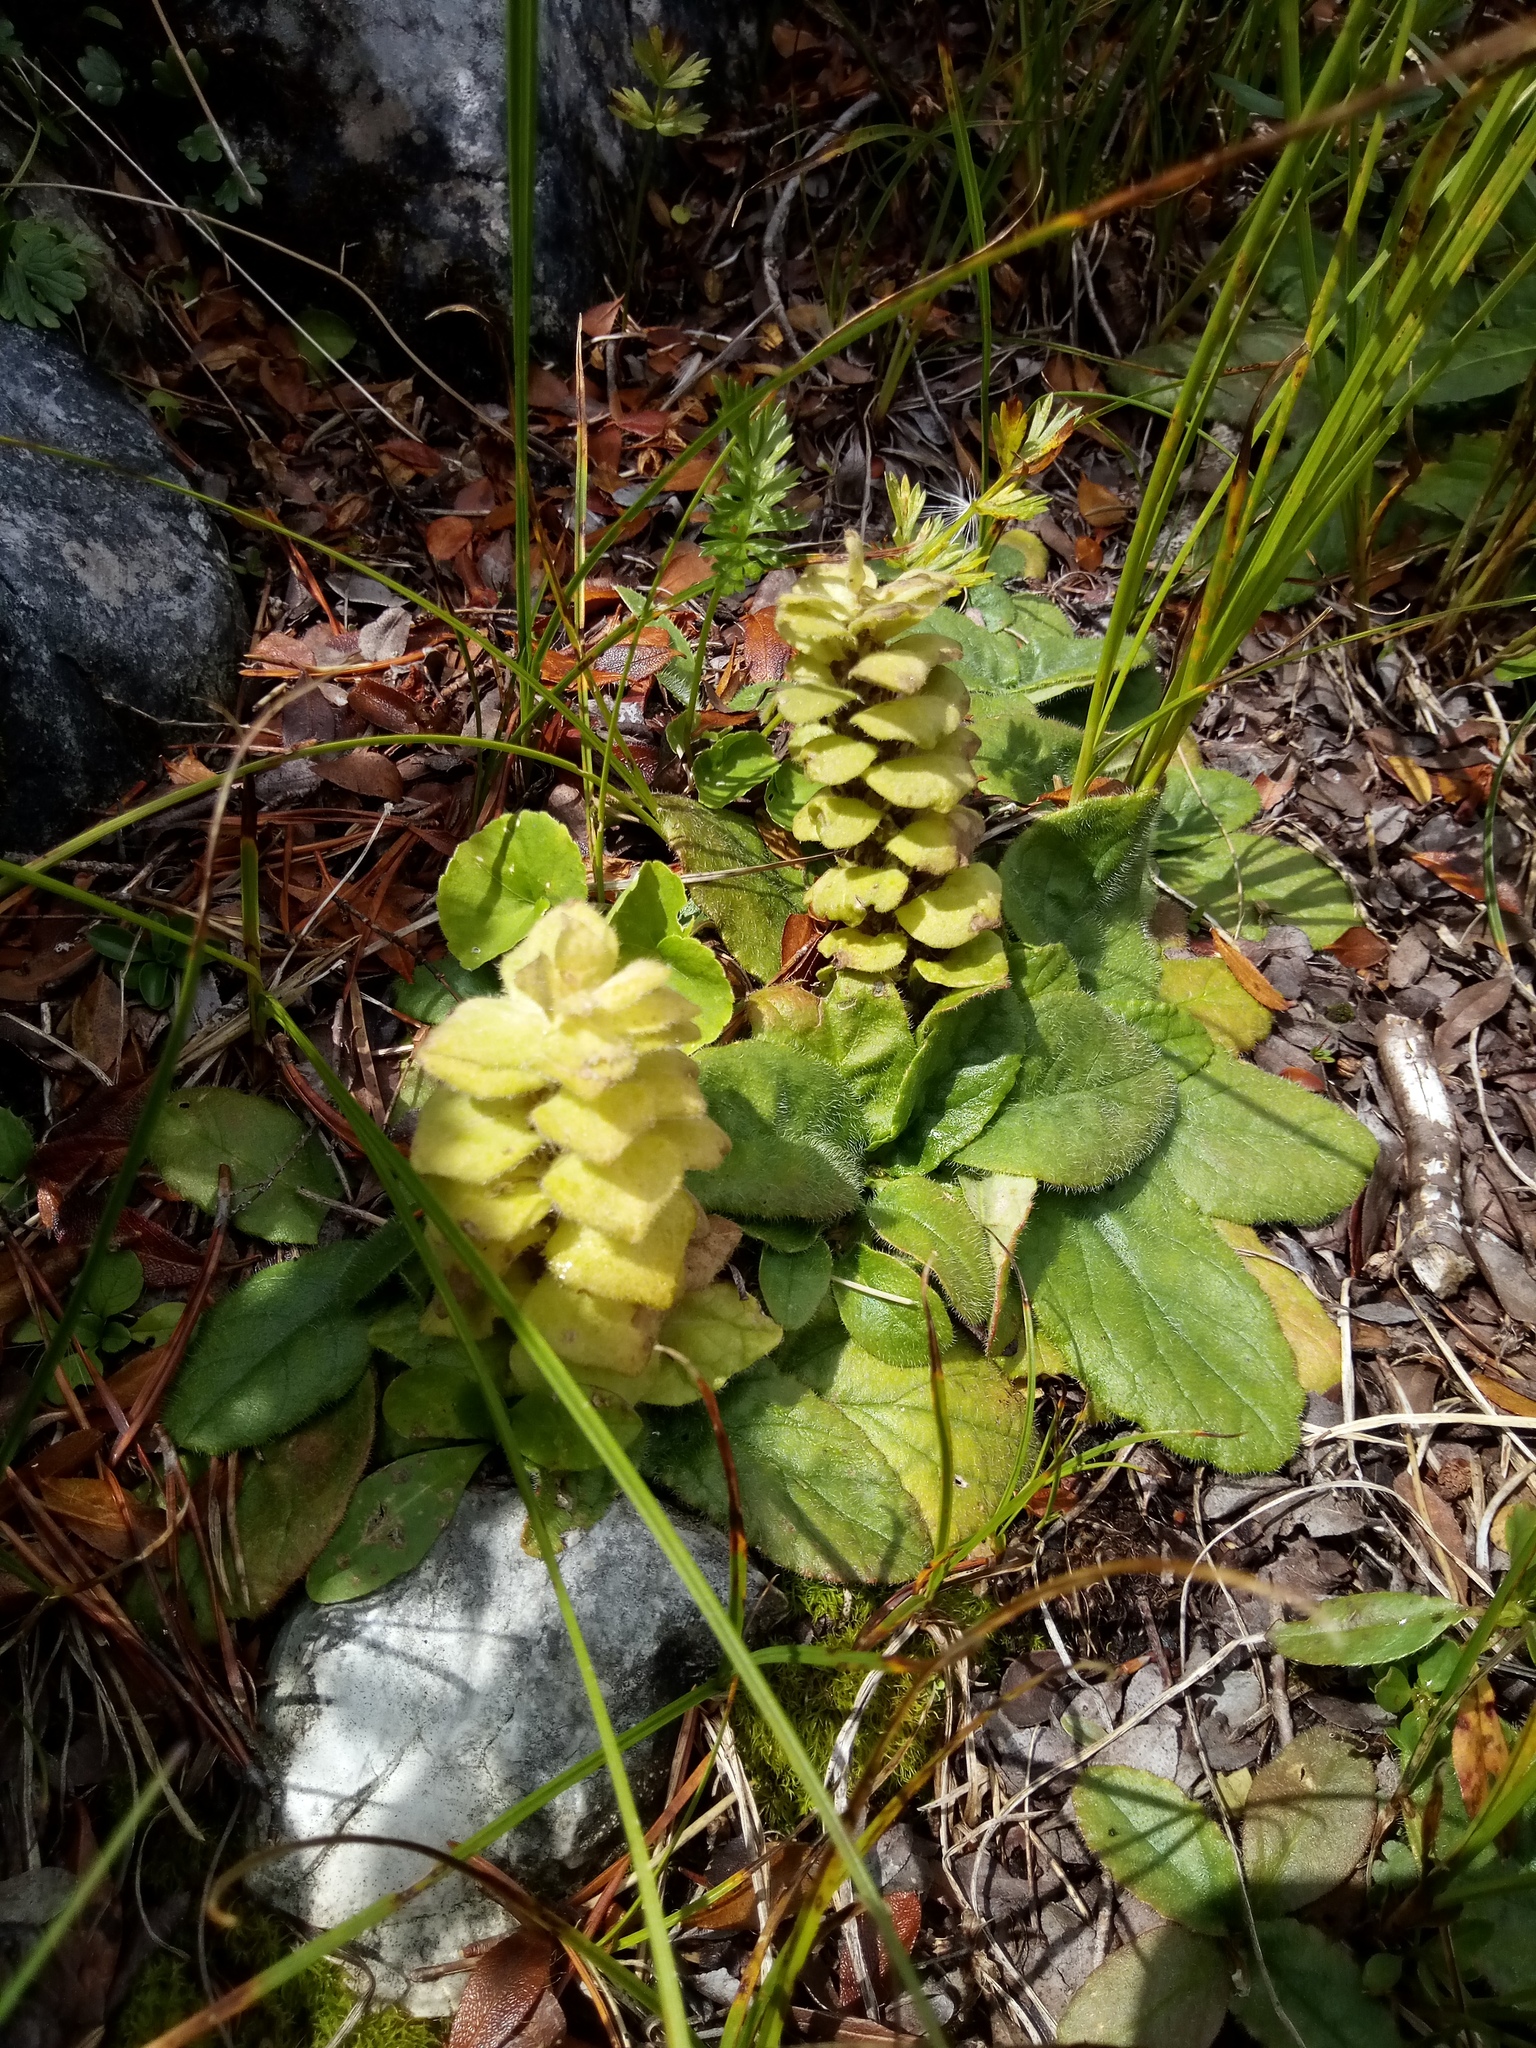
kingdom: Plantae
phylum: Tracheophyta
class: Magnoliopsida
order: Lamiales
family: Lamiaceae
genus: Ajuga
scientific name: Ajuga pyramidalis
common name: Pyramid bugle
